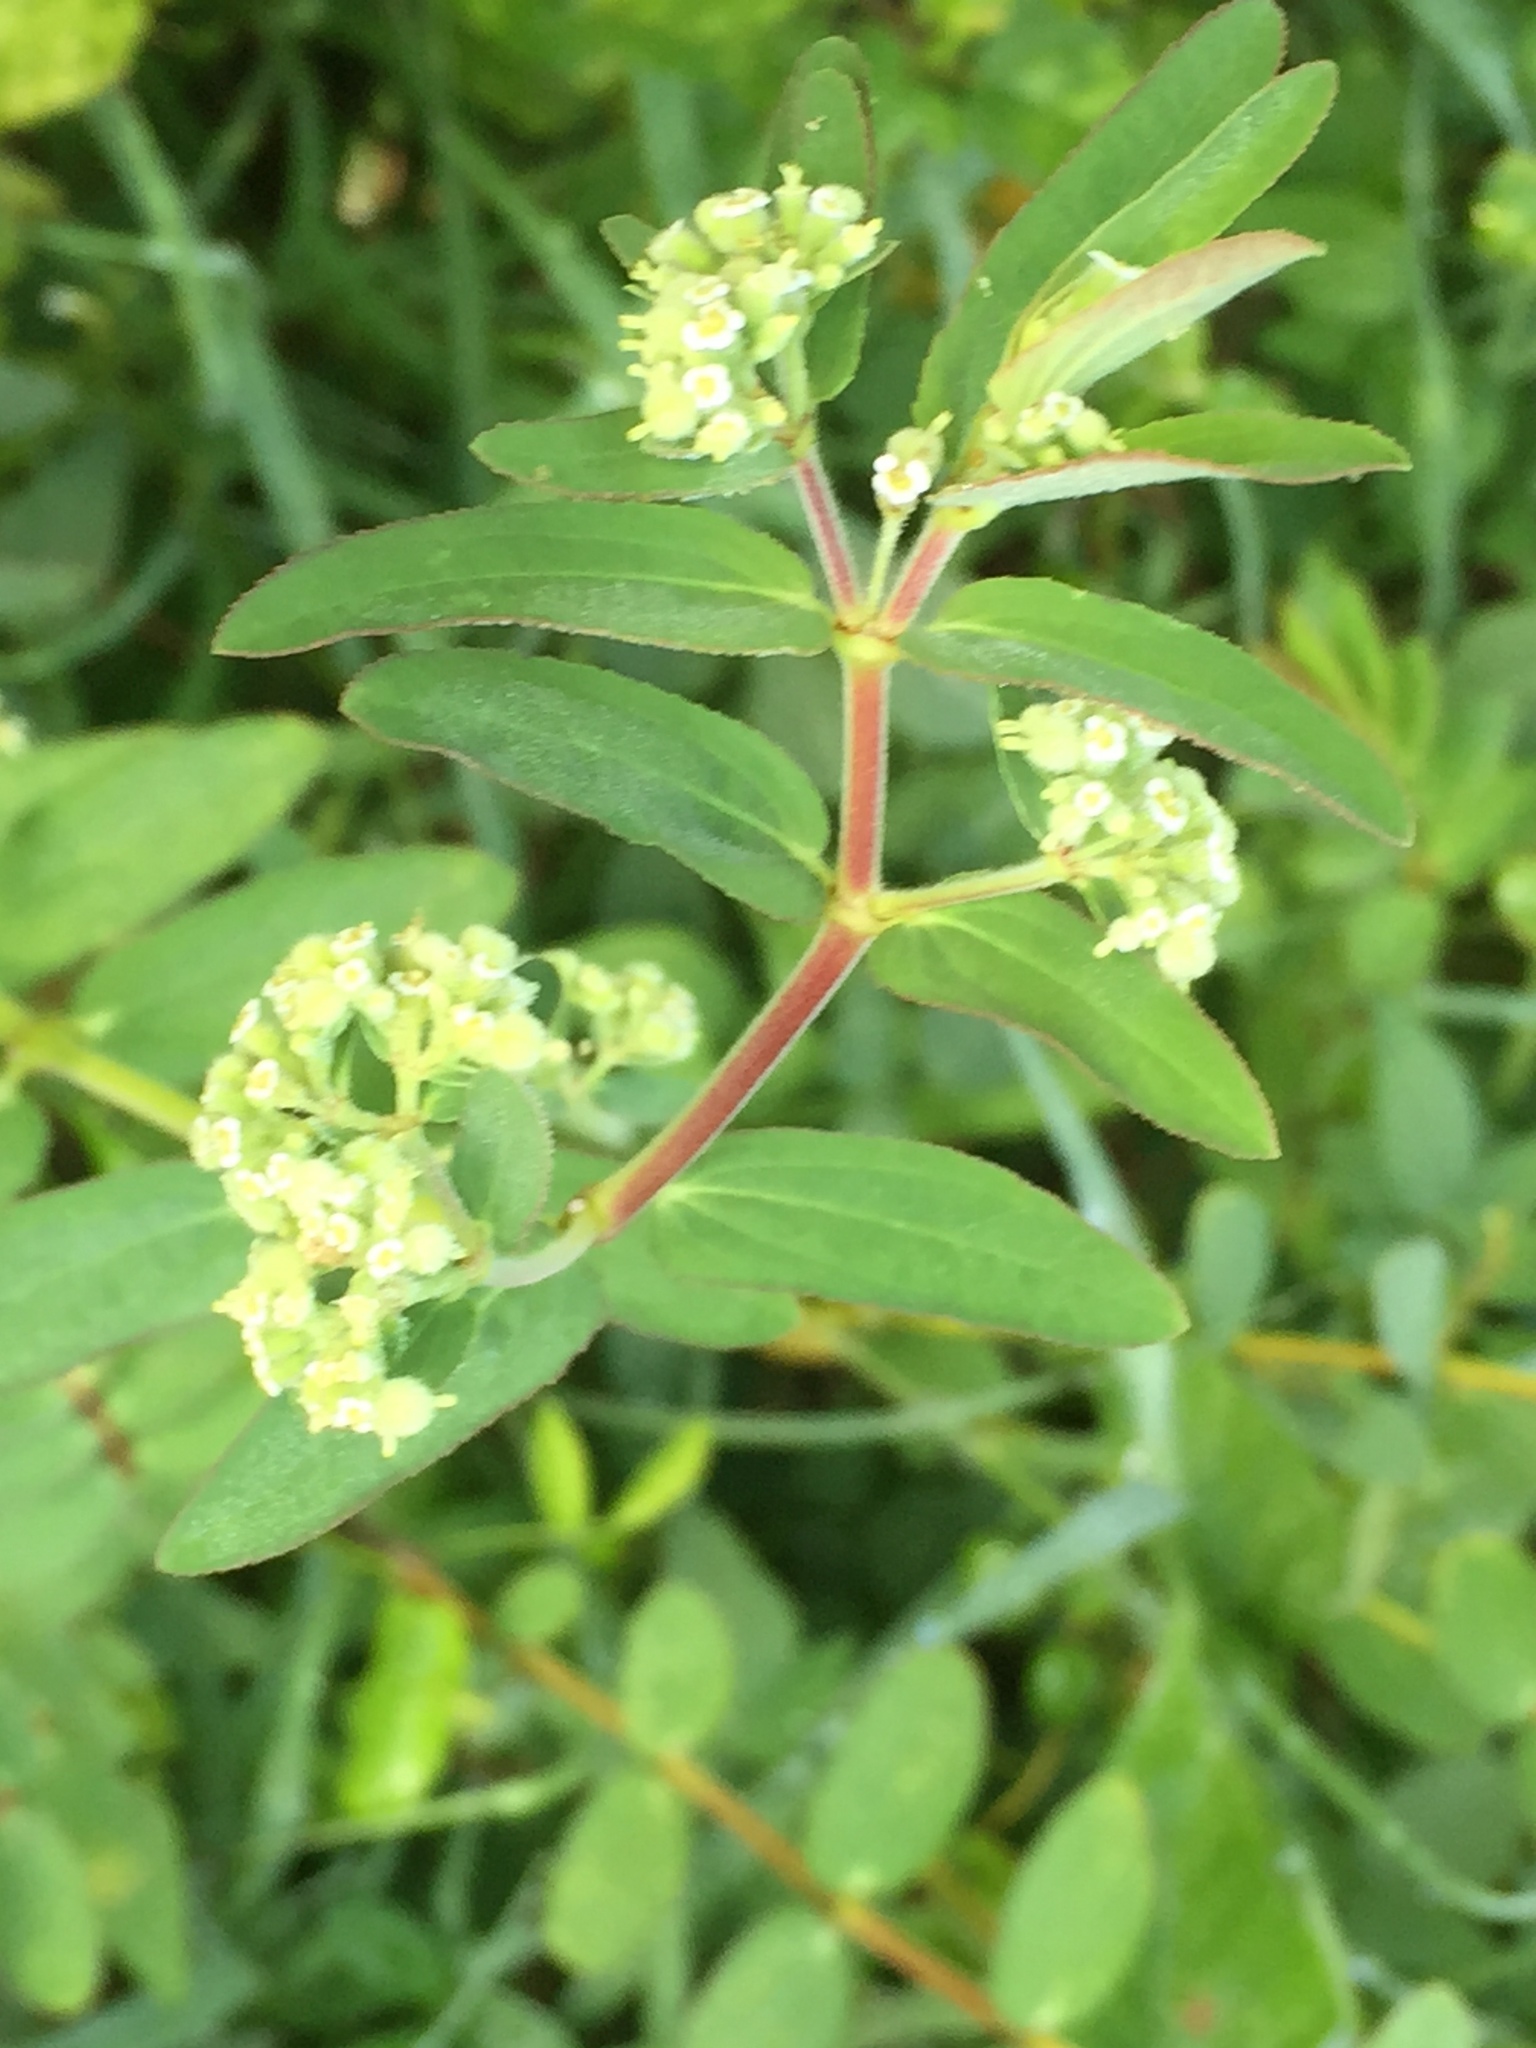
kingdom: Plantae
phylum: Tracheophyta
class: Magnoliopsida
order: Malpighiales
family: Euphorbiaceae
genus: Euphorbia
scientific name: Euphorbia lasiocarpa
